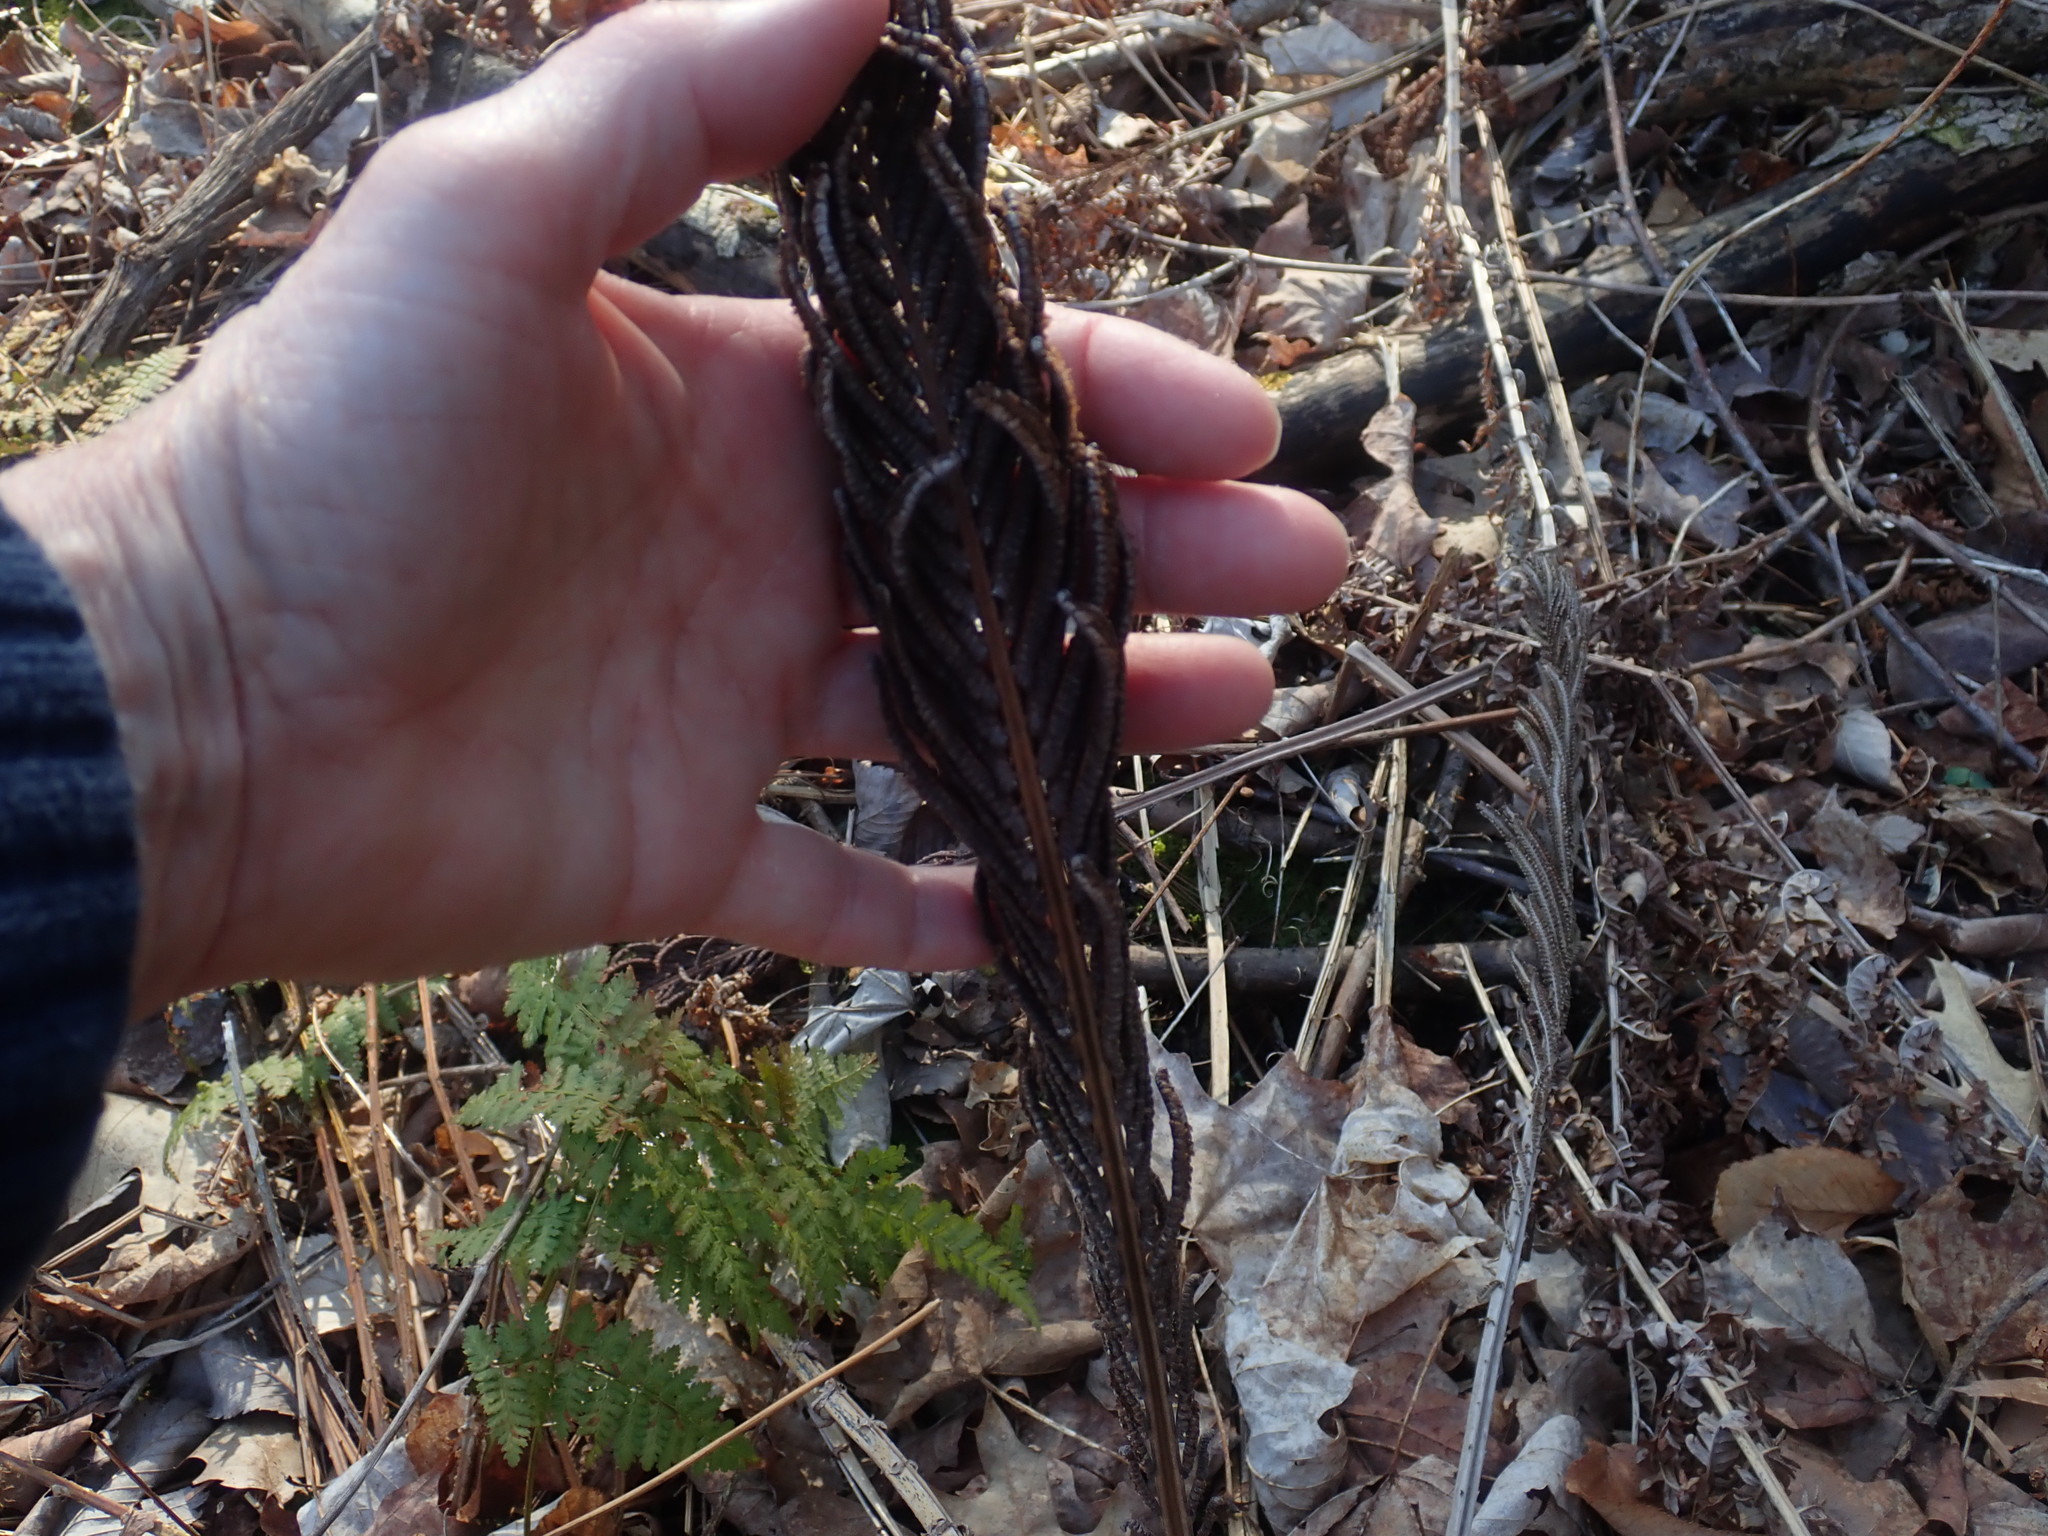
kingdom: Plantae
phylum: Tracheophyta
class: Polypodiopsida
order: Polypodiales
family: Onocleaceae
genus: Matteuccia
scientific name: Matteuccia struthiopteris
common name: Ostrich fern
